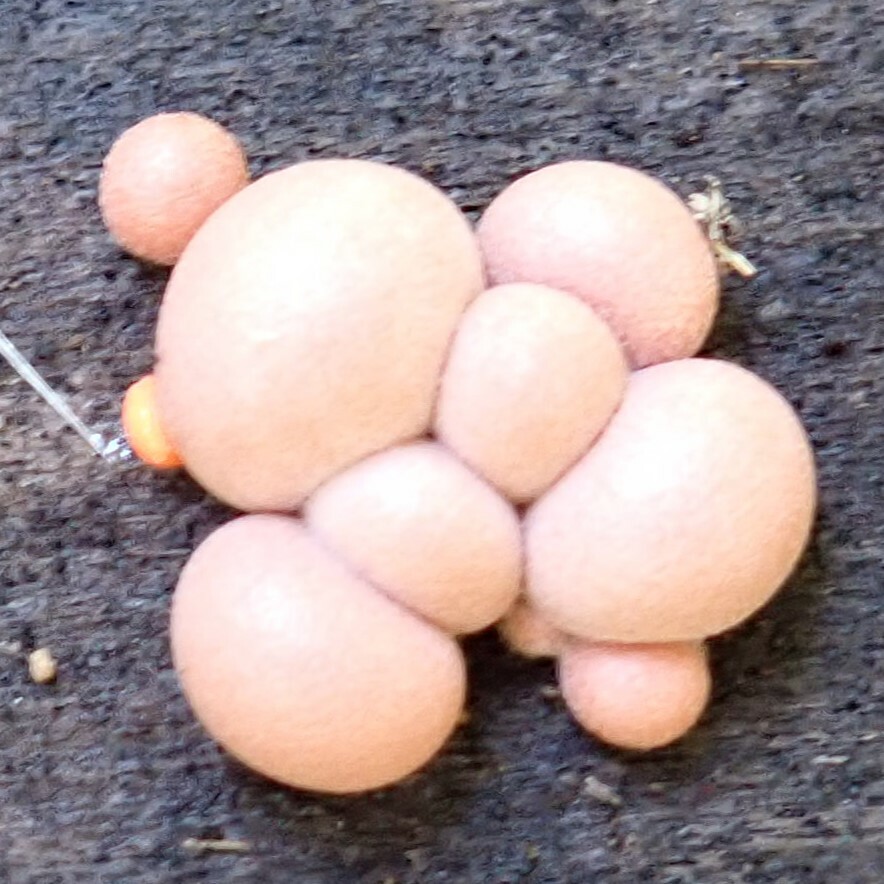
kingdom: Protozoa
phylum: Mycetozoa
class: Myxomycetes
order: Cribrariales
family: Tubiferaceae
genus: Lycogala
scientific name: Lycogala epidendrum
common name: Wolf's milk
